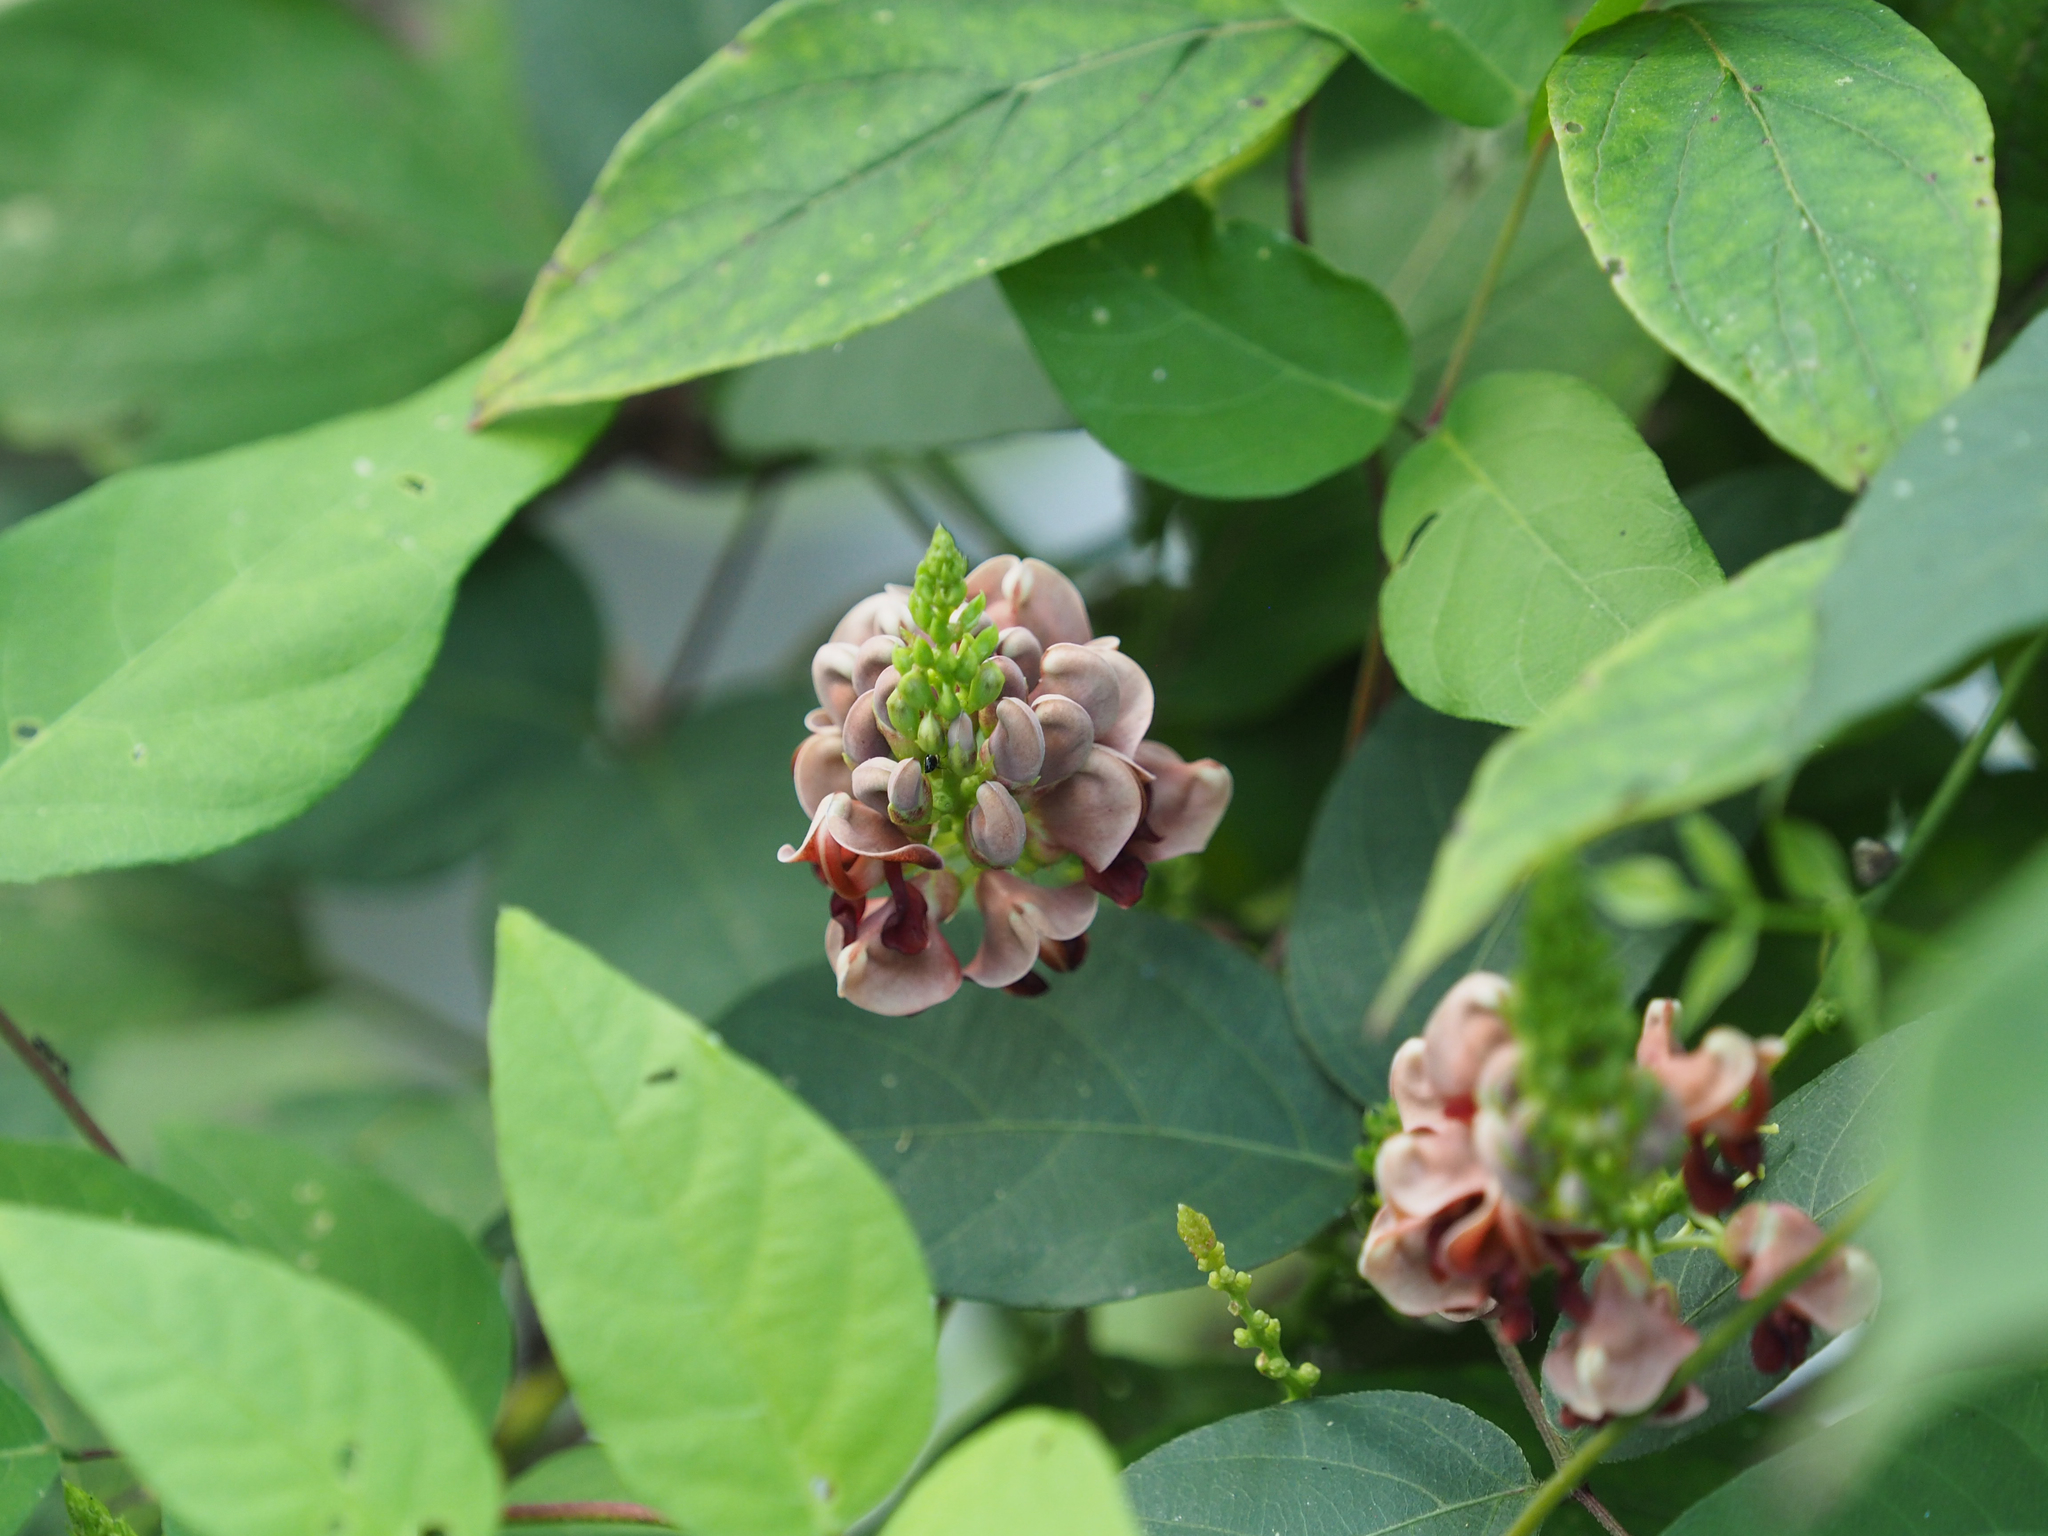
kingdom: Plantae
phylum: Tracheophyta
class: Magnoliopsida
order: Fabales
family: Fabaceae
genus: Apios
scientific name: Apios americana
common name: American potato-bean
